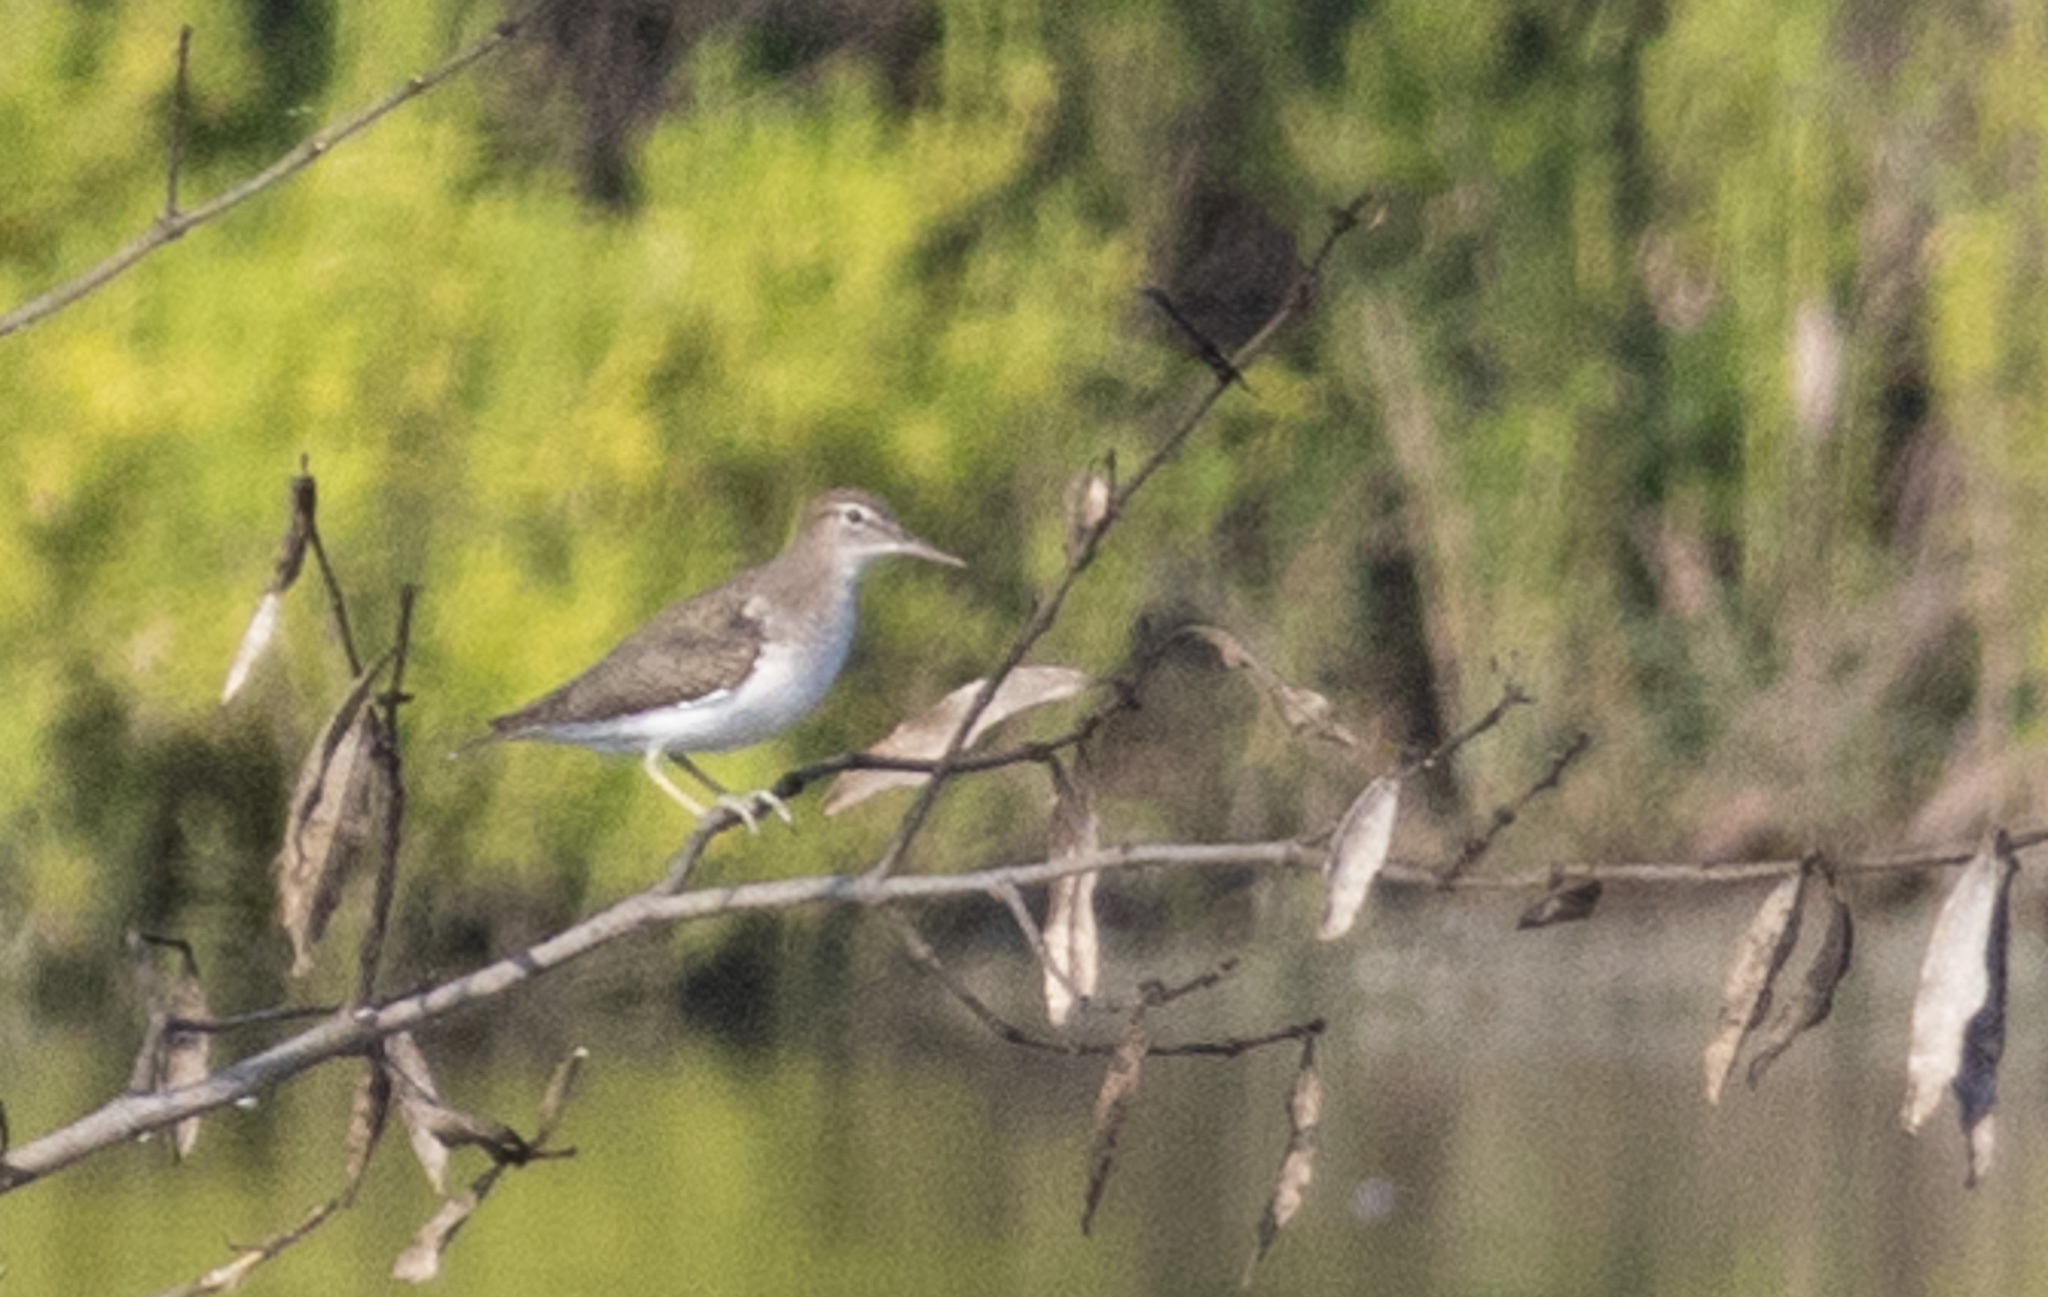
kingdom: Animalia
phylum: Chordata
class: Aves
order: Charadriiformes
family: Scolopacidae
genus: Actitis
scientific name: Actitis macularius
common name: Spotted sandpiper
